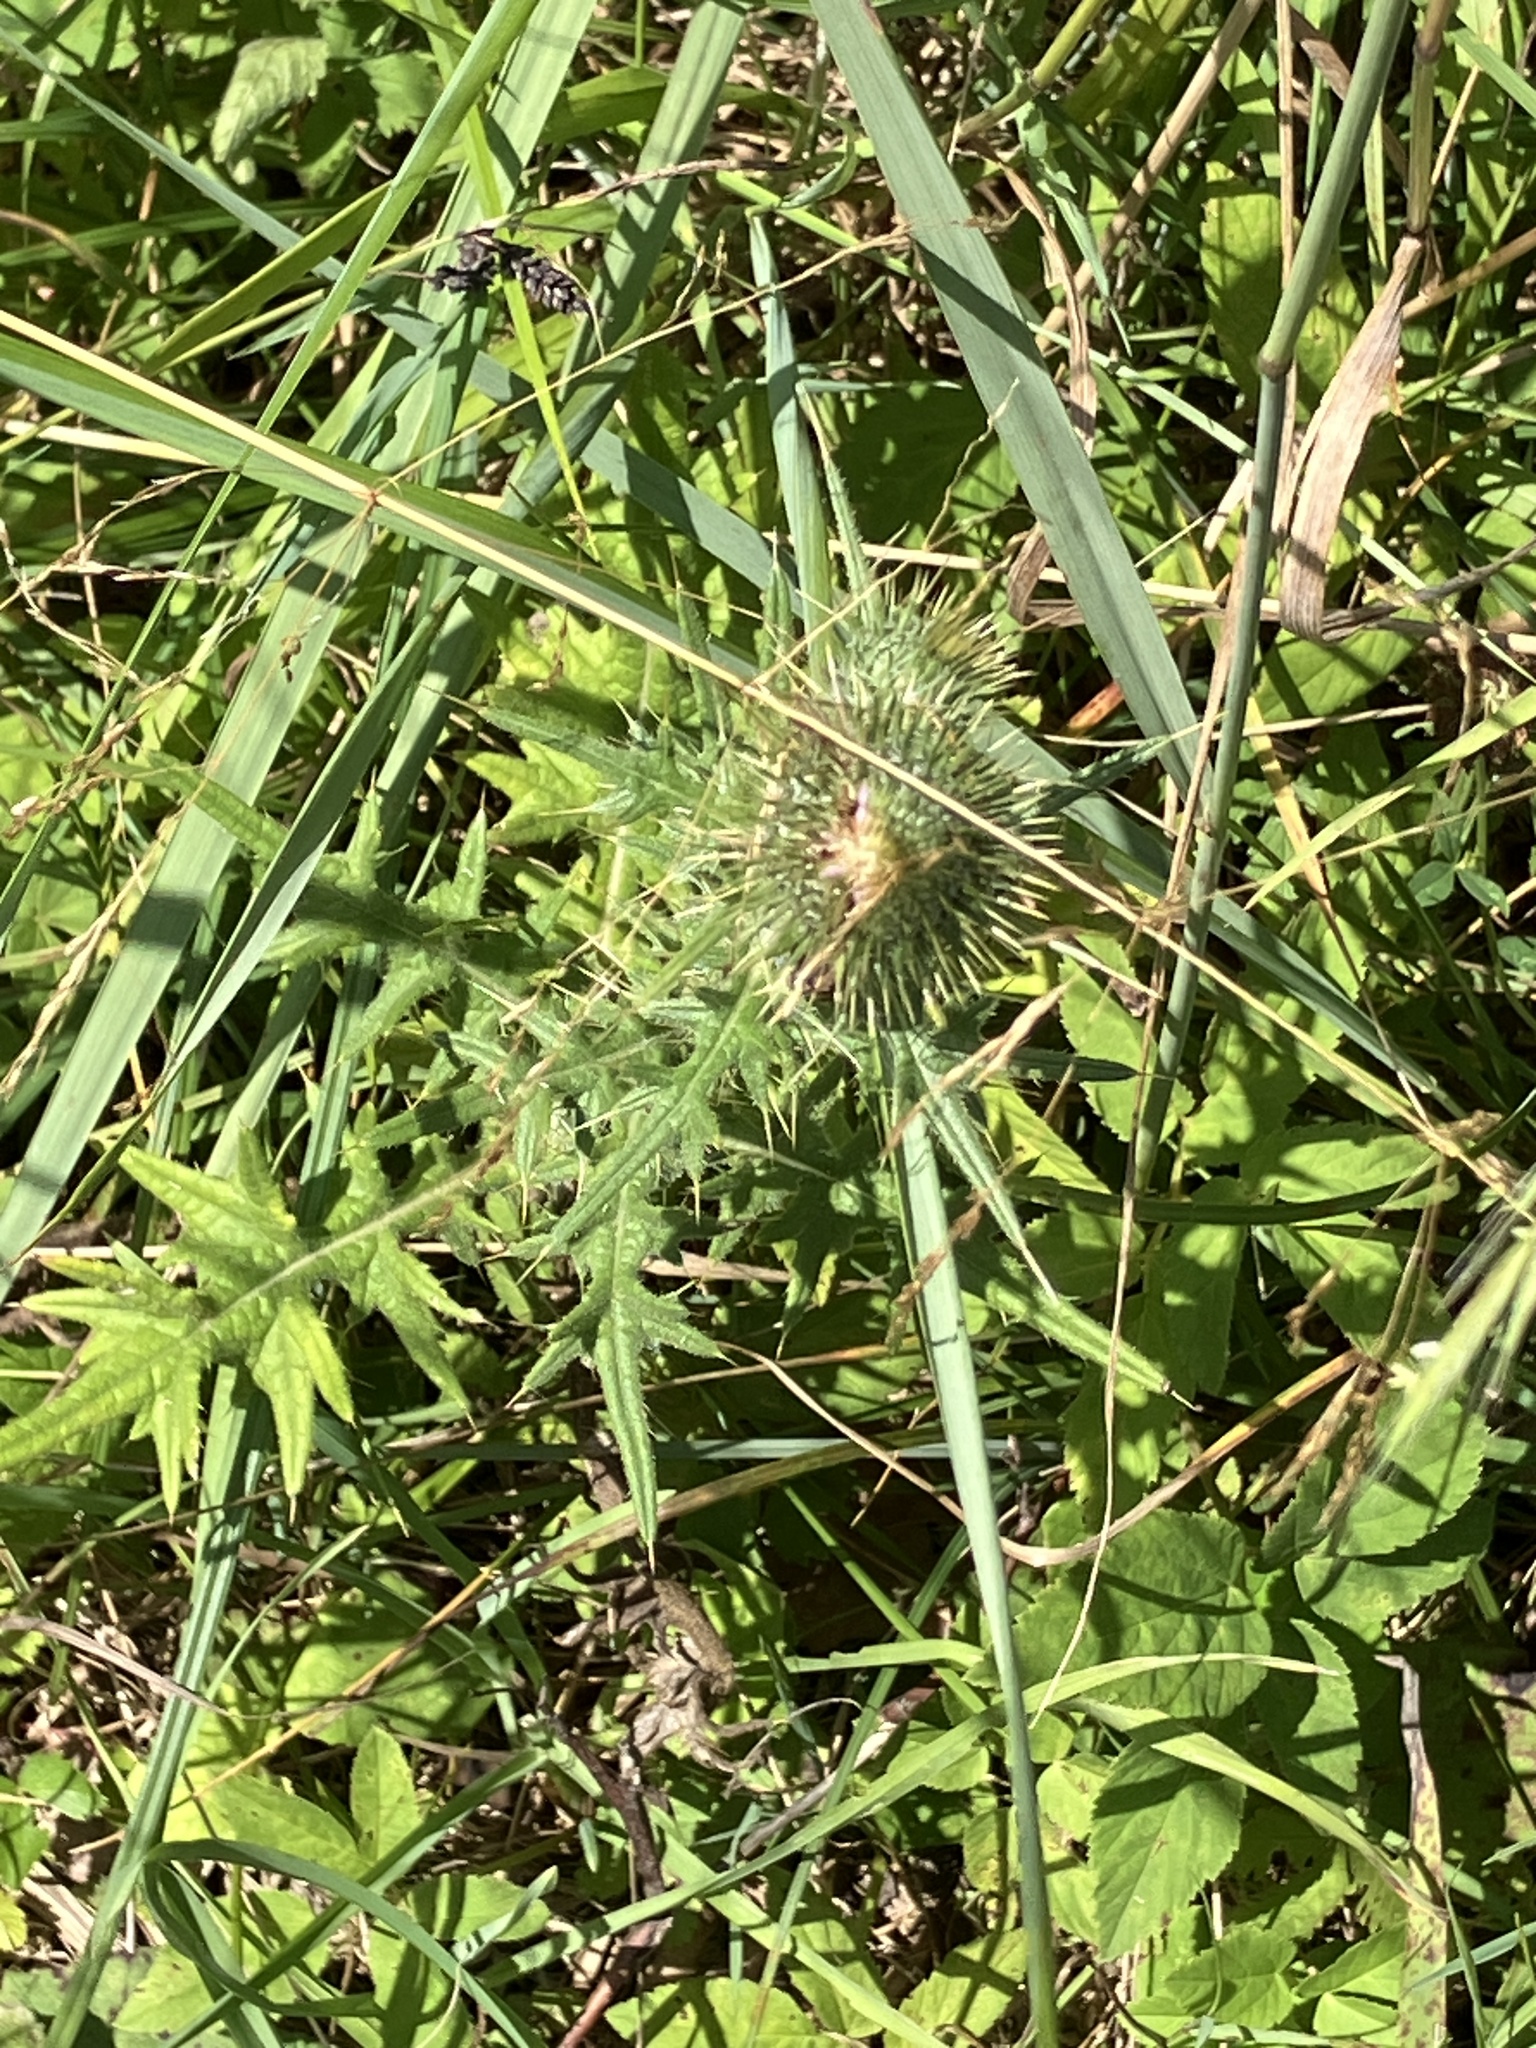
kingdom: Plantae
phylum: Tracheophyta
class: Magnoliopsida
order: Asterales
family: Asteraceae
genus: Cirsium
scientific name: Cirsium vulgare
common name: Bull thistle
